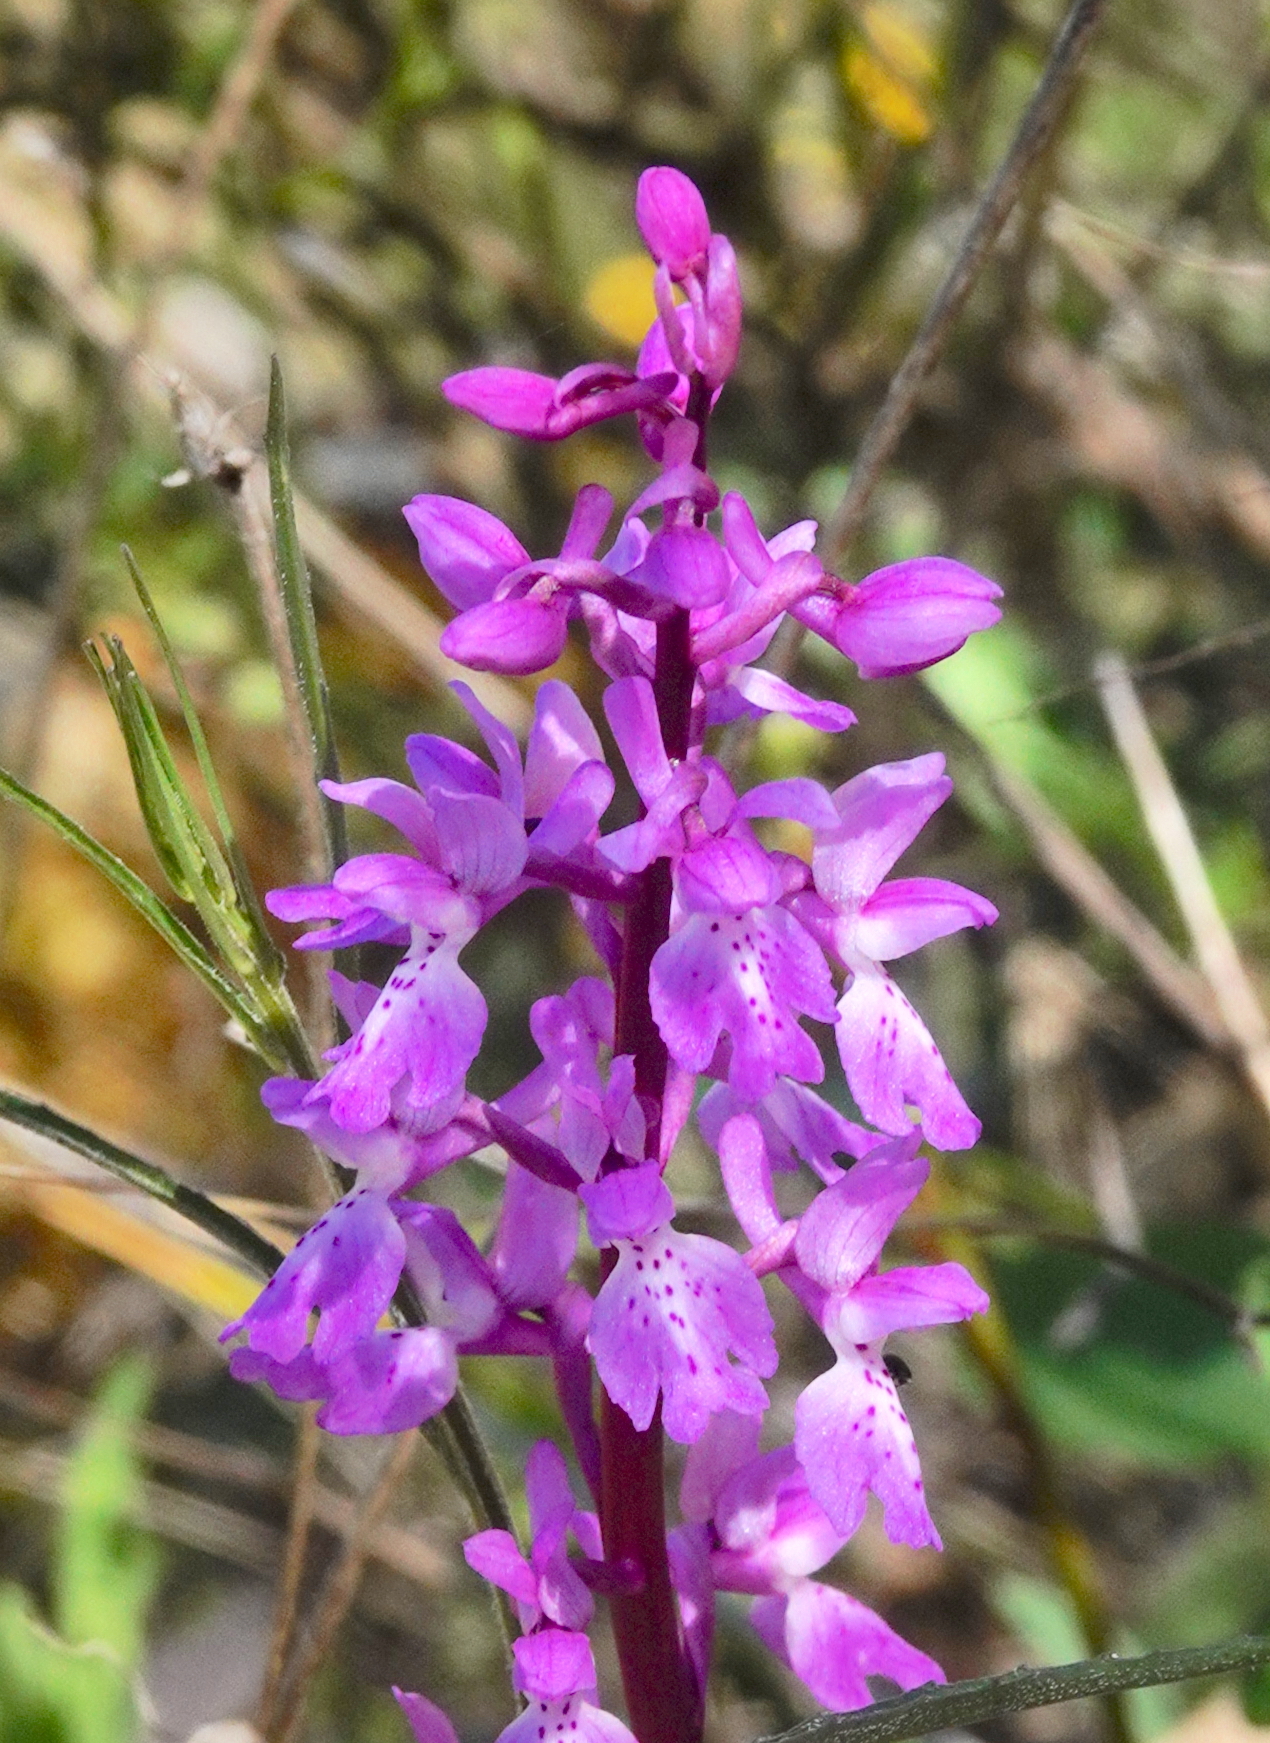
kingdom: Plantae
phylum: Tracheophyta
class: Liliopsida
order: Asparagales
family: Orchidaceae
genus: Orchis
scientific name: Orchis olbiensis
